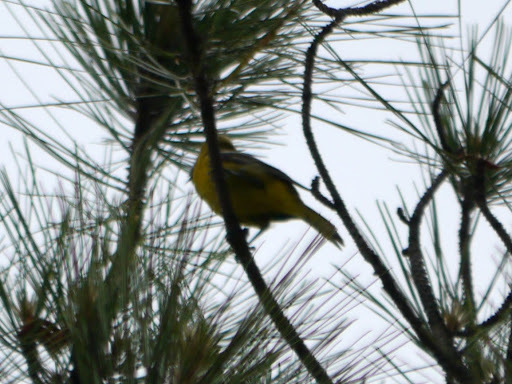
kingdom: Animalia
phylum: Chordata
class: Aves
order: Passeriformes
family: Icteridae
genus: Icterus
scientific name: Icterus spurius
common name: Orchard oriole
